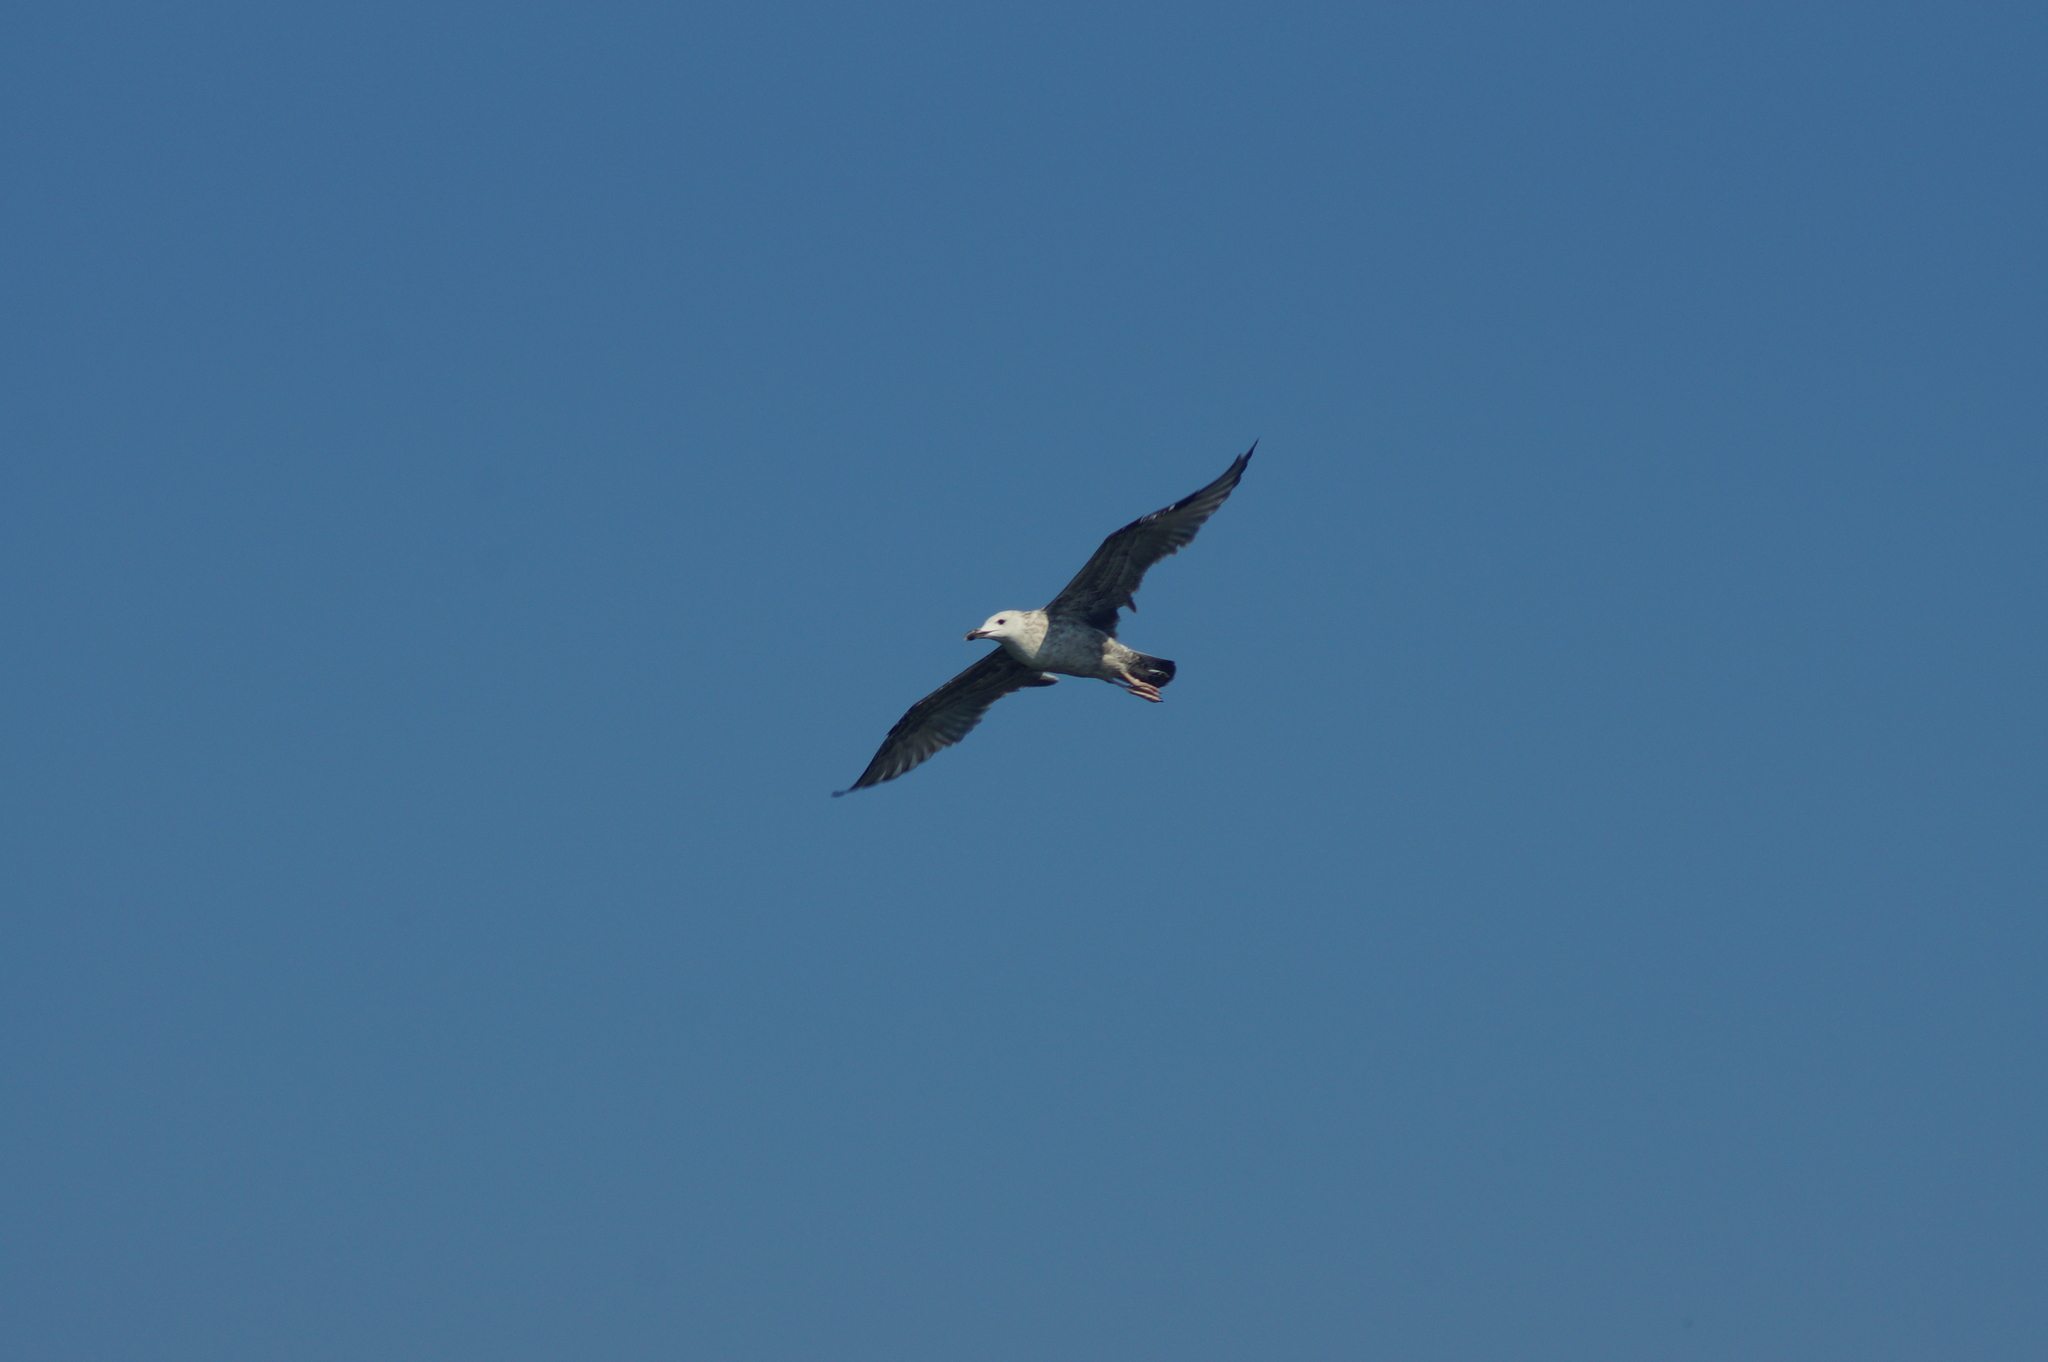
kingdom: Animalia
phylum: Chordata
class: Aves
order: Charadriiformes
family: Laridae
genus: Larus
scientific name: Larus cachinnans
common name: Caspian gull
